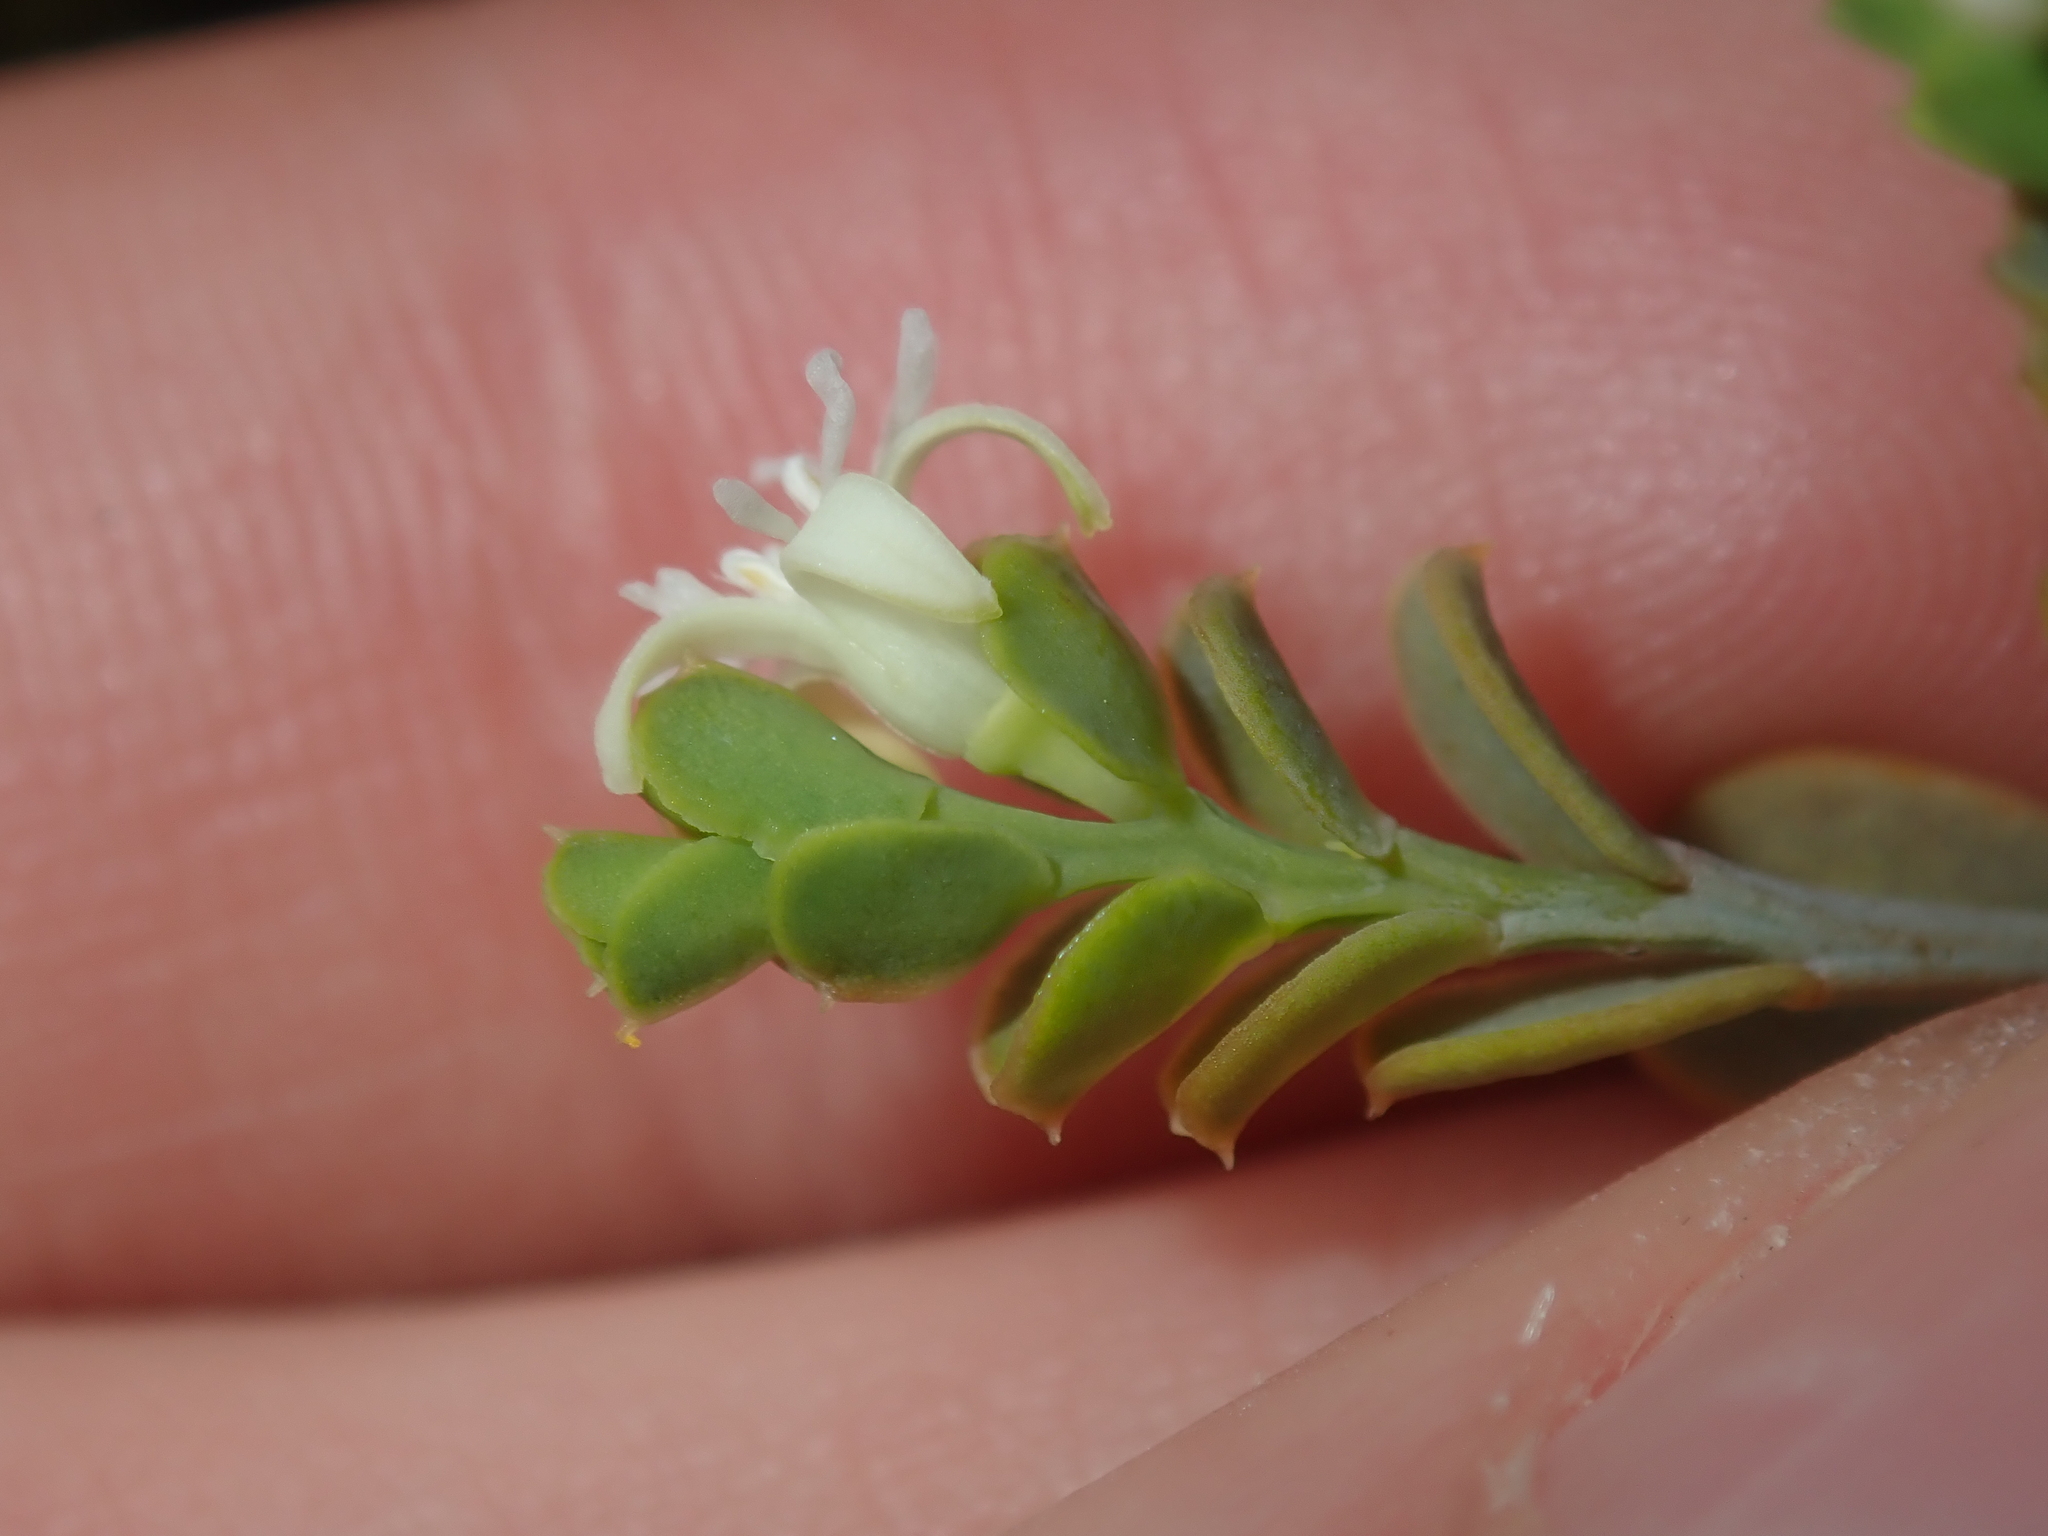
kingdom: Plantae
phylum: Tracheophyta
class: Magnoliopsida
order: Santalales
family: Olacaceae
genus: Olax
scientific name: Olax benthamiana
